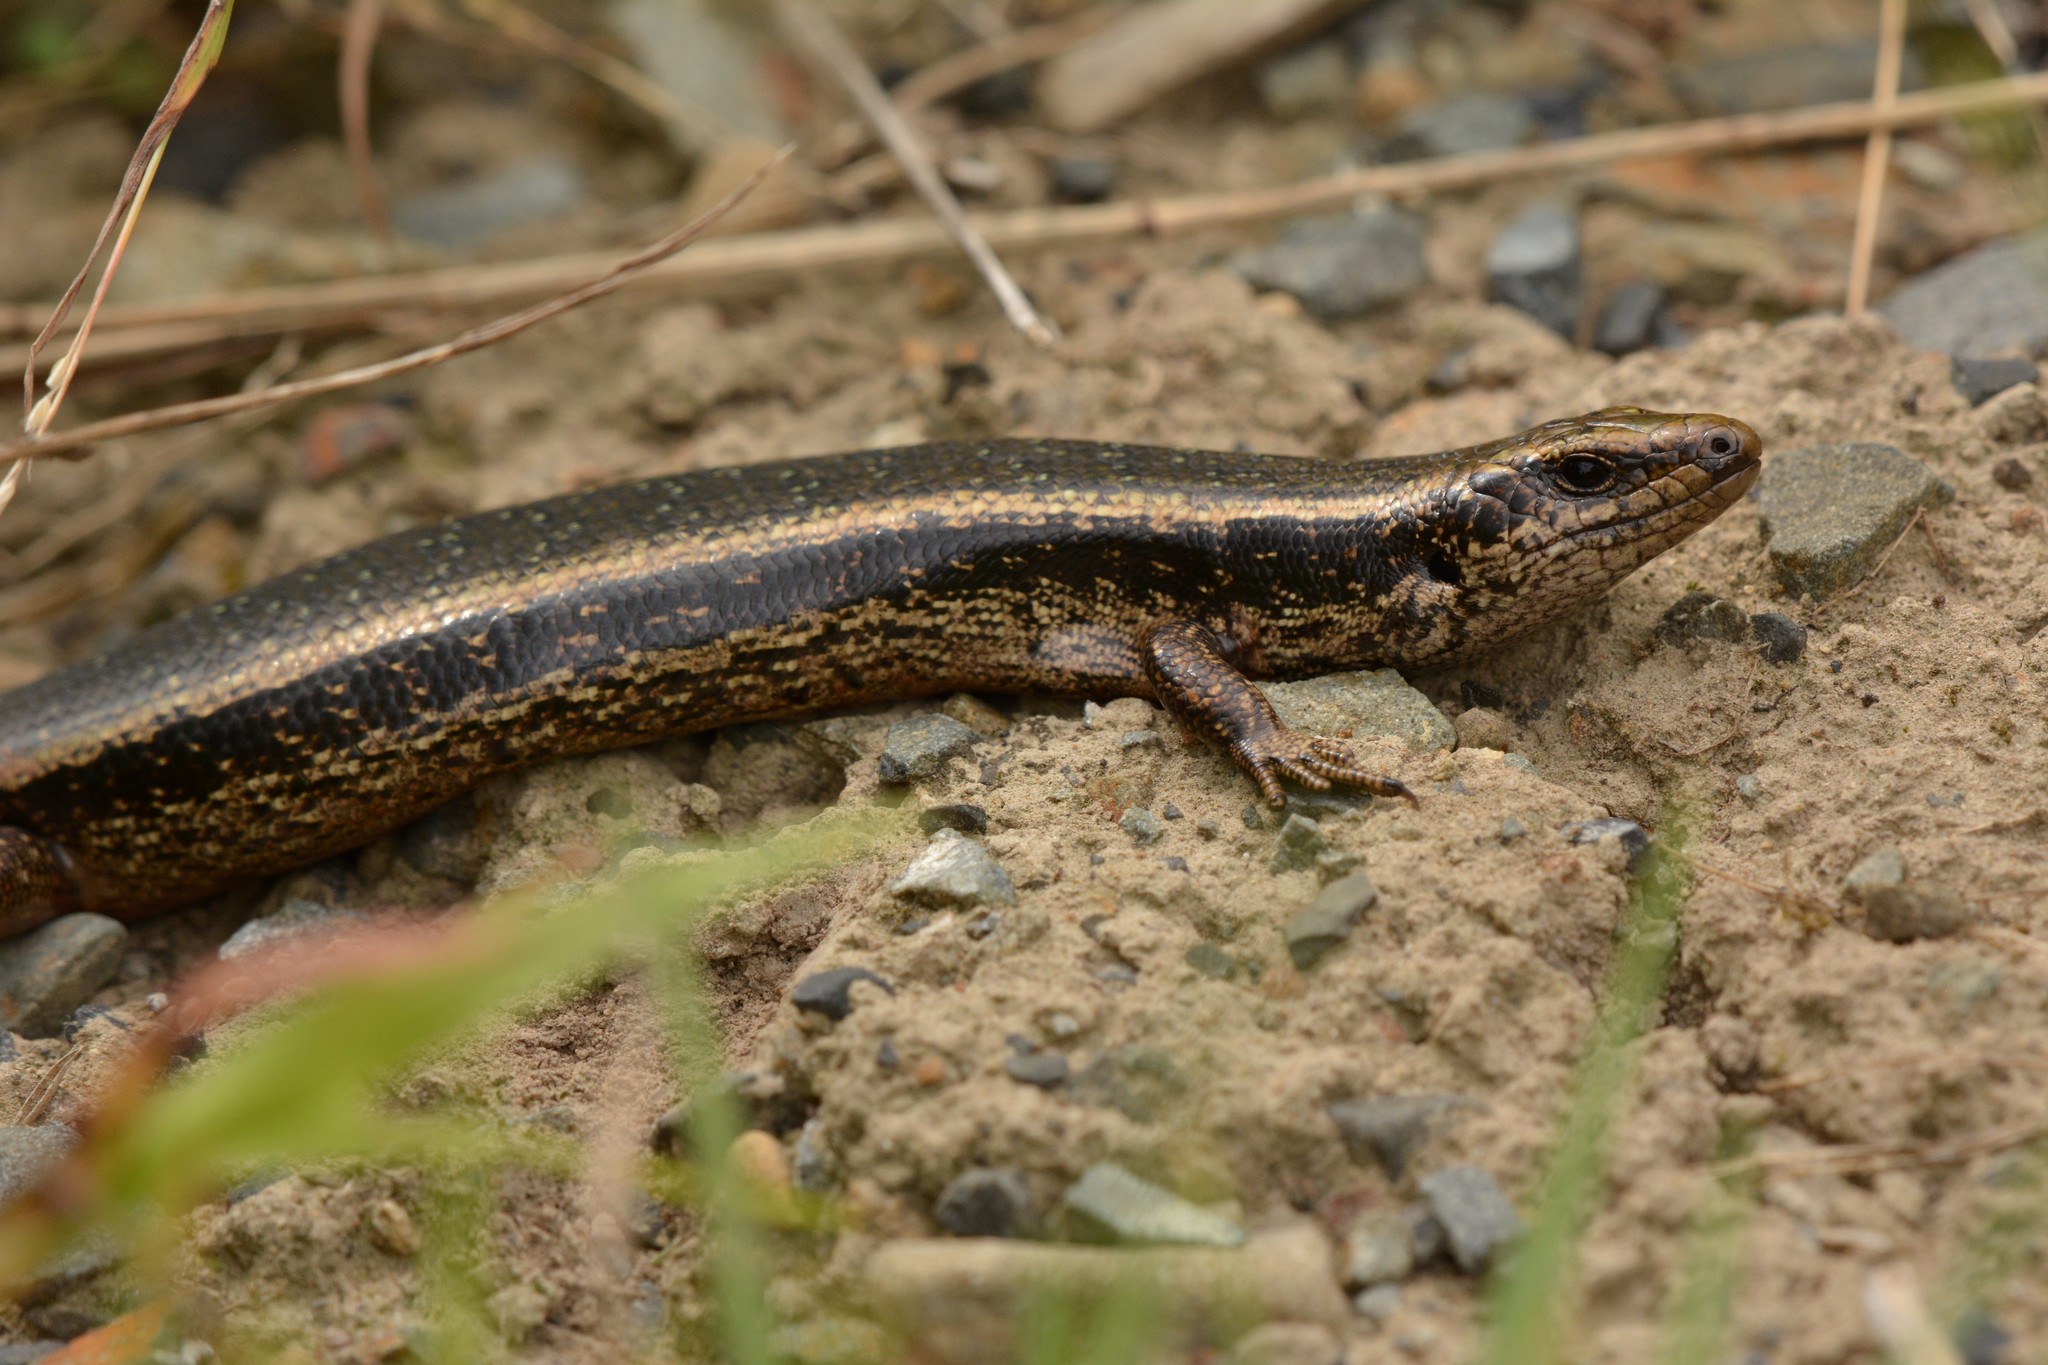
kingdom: Animalia
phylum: Chordata
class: Squamata
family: Scincidae
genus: Oligosoma
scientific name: Oligosoma kokowai
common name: Northern spotted skink
